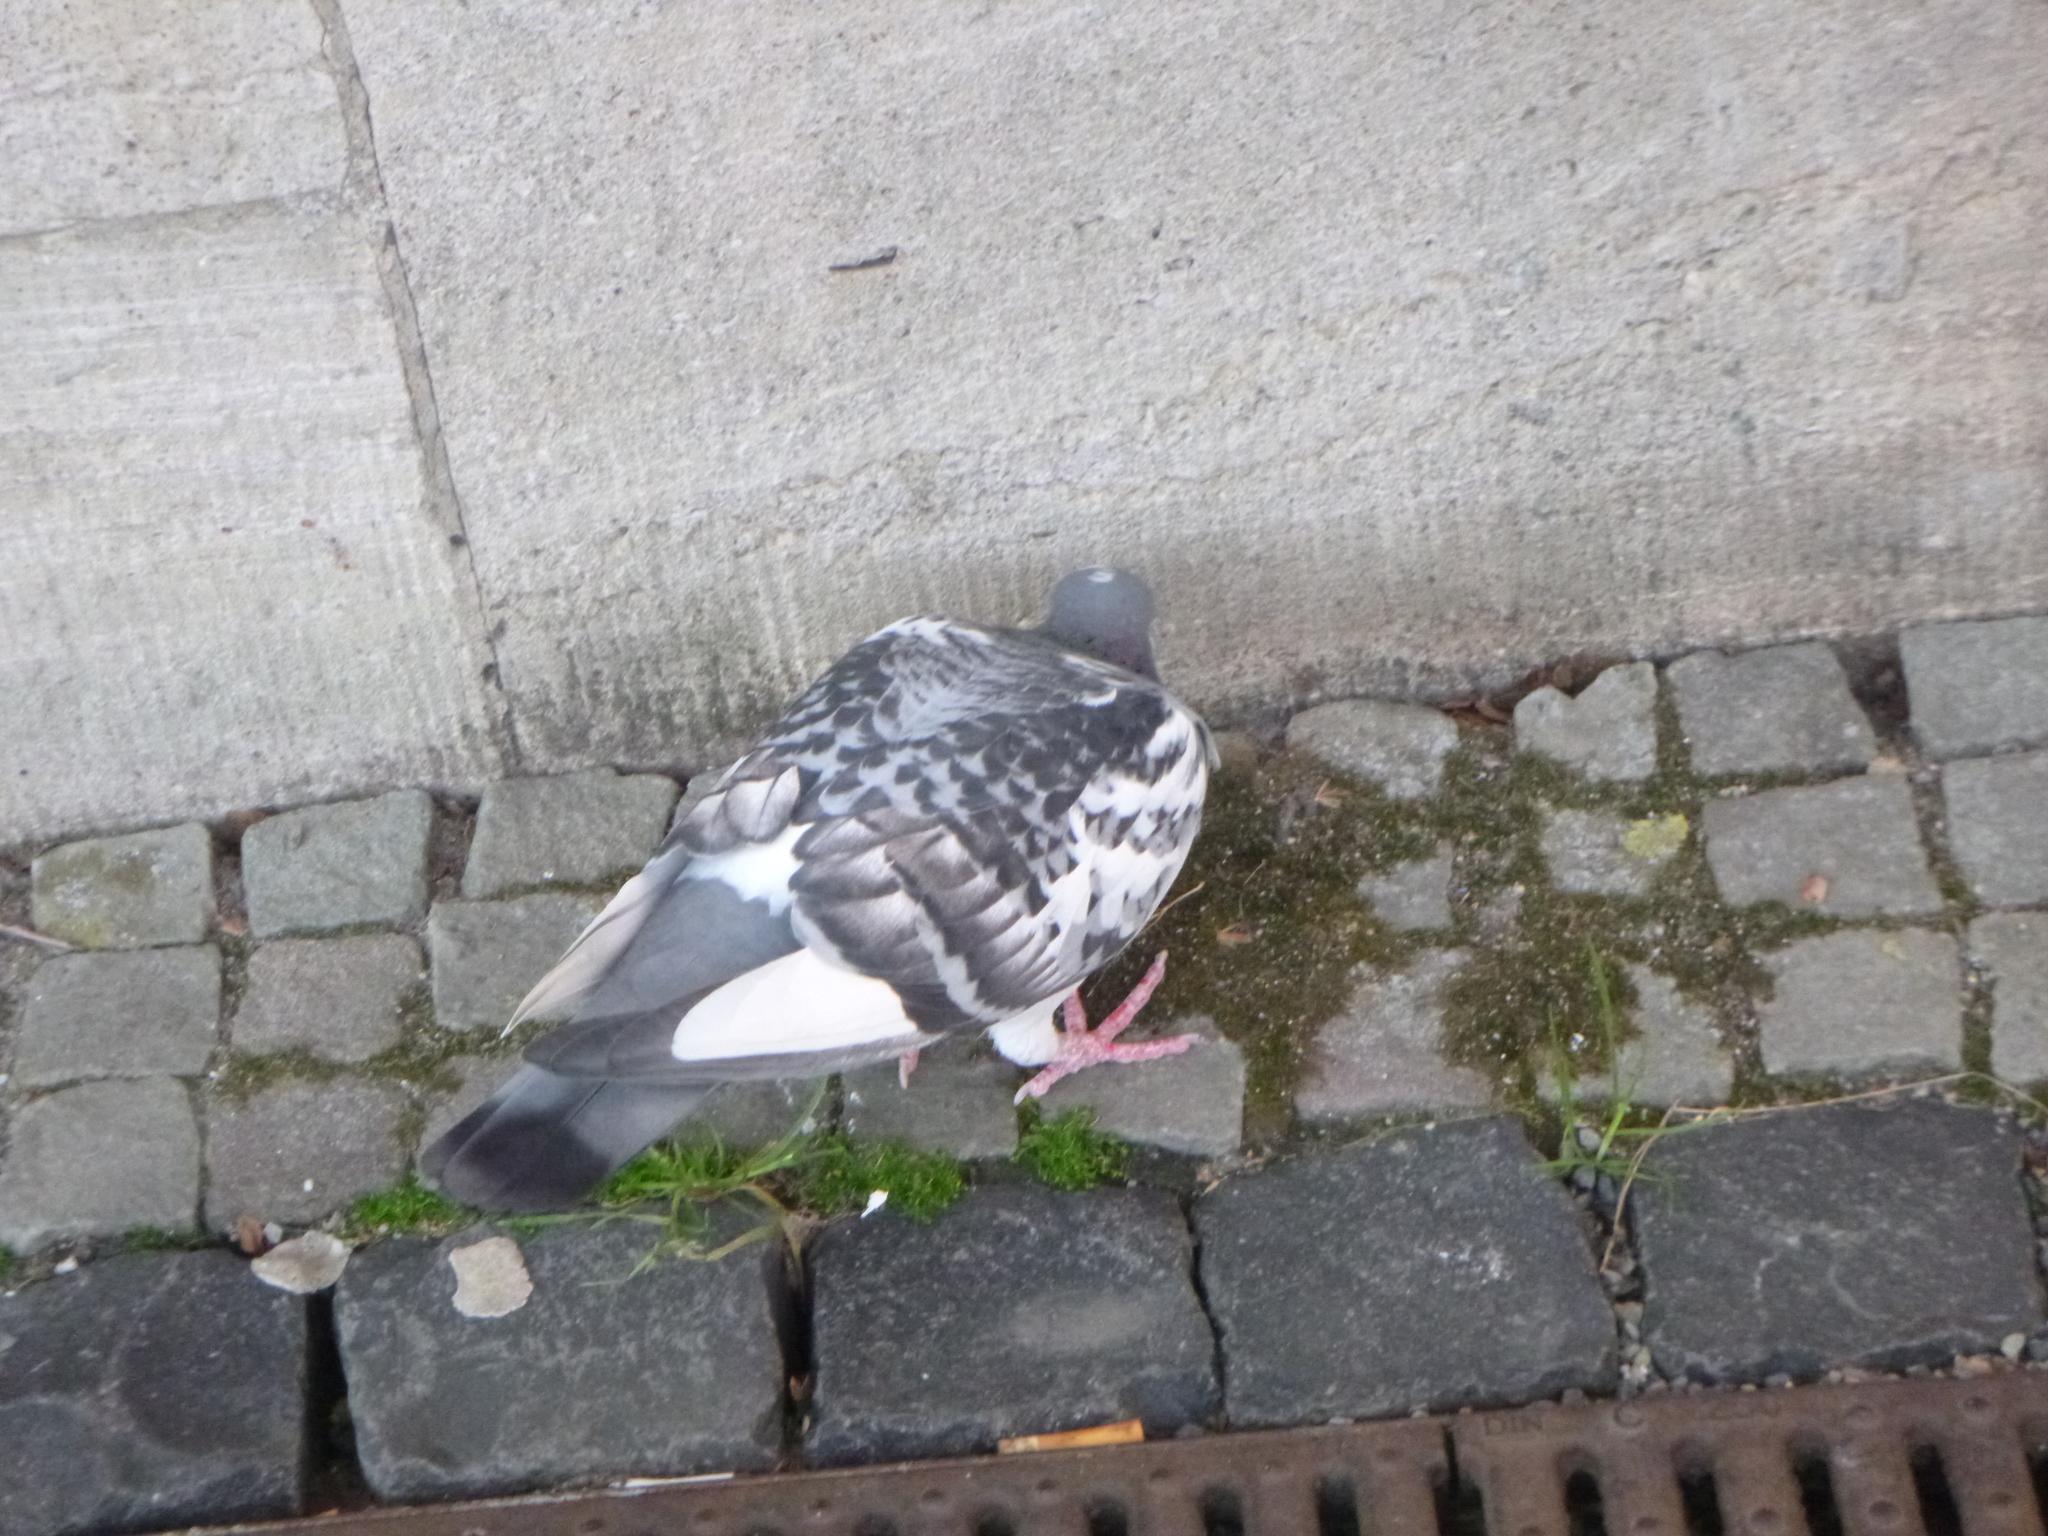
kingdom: Animalia
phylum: Chordata
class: Aves
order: Columbiformes
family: Columbidae
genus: Columba
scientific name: Columba livia
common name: Rock pigeon
